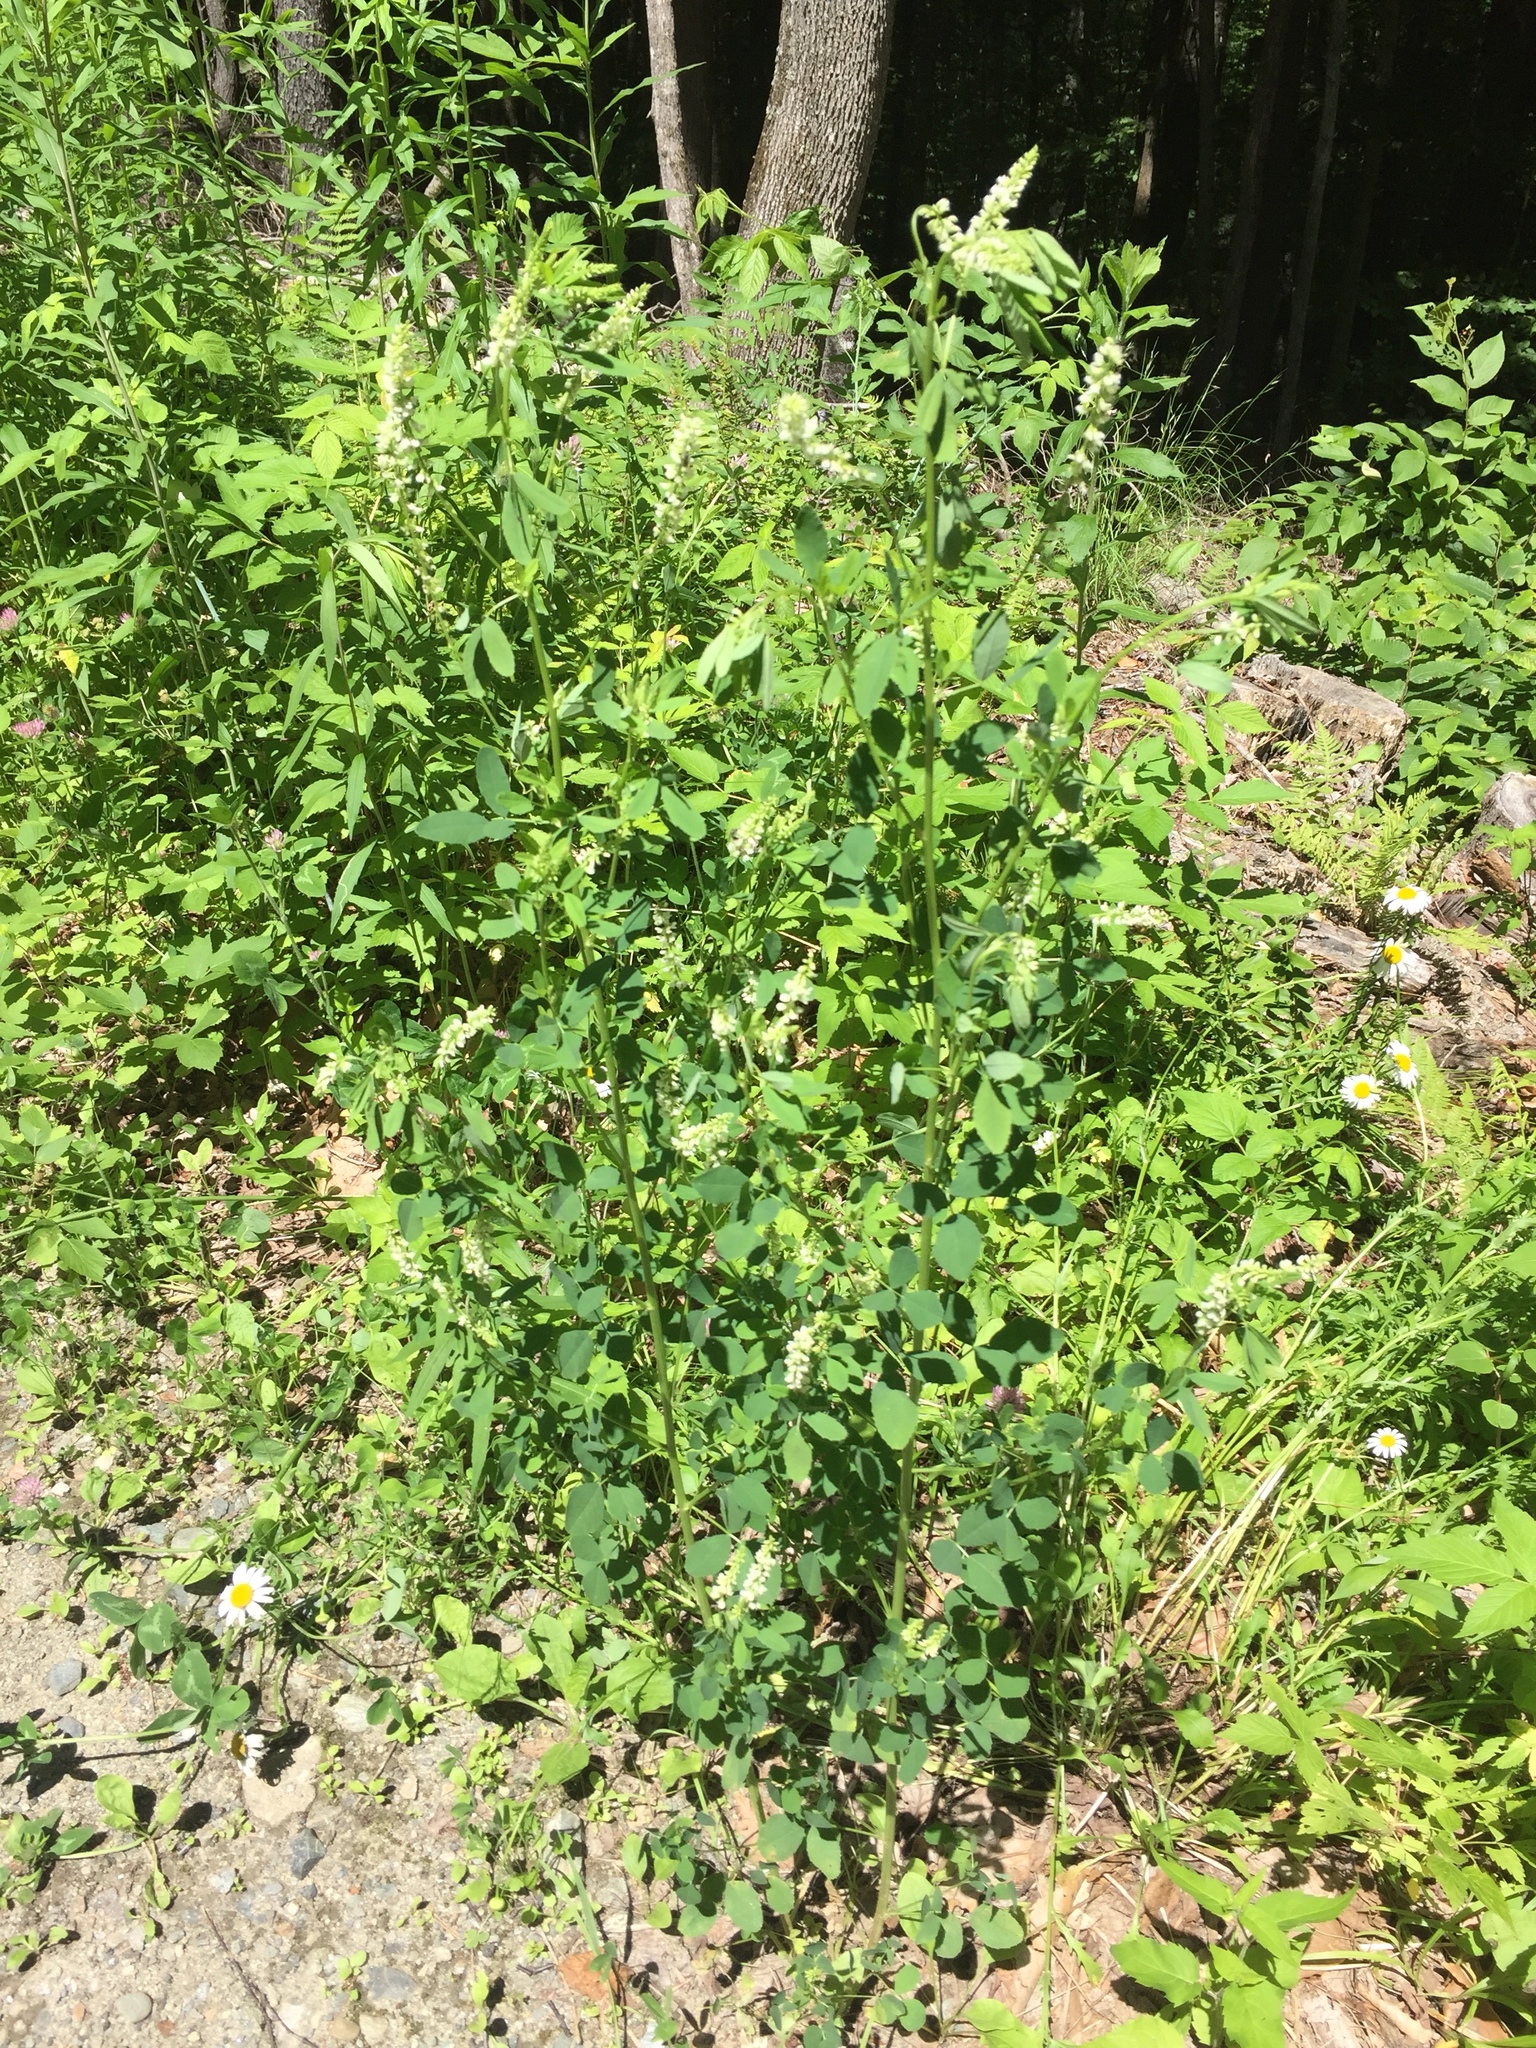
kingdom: Plantae
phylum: Tracheophyta
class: Magnoliopsida
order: Fabales
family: Fabaceae
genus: Melilotus
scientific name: Melilotus albus
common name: White melilot
